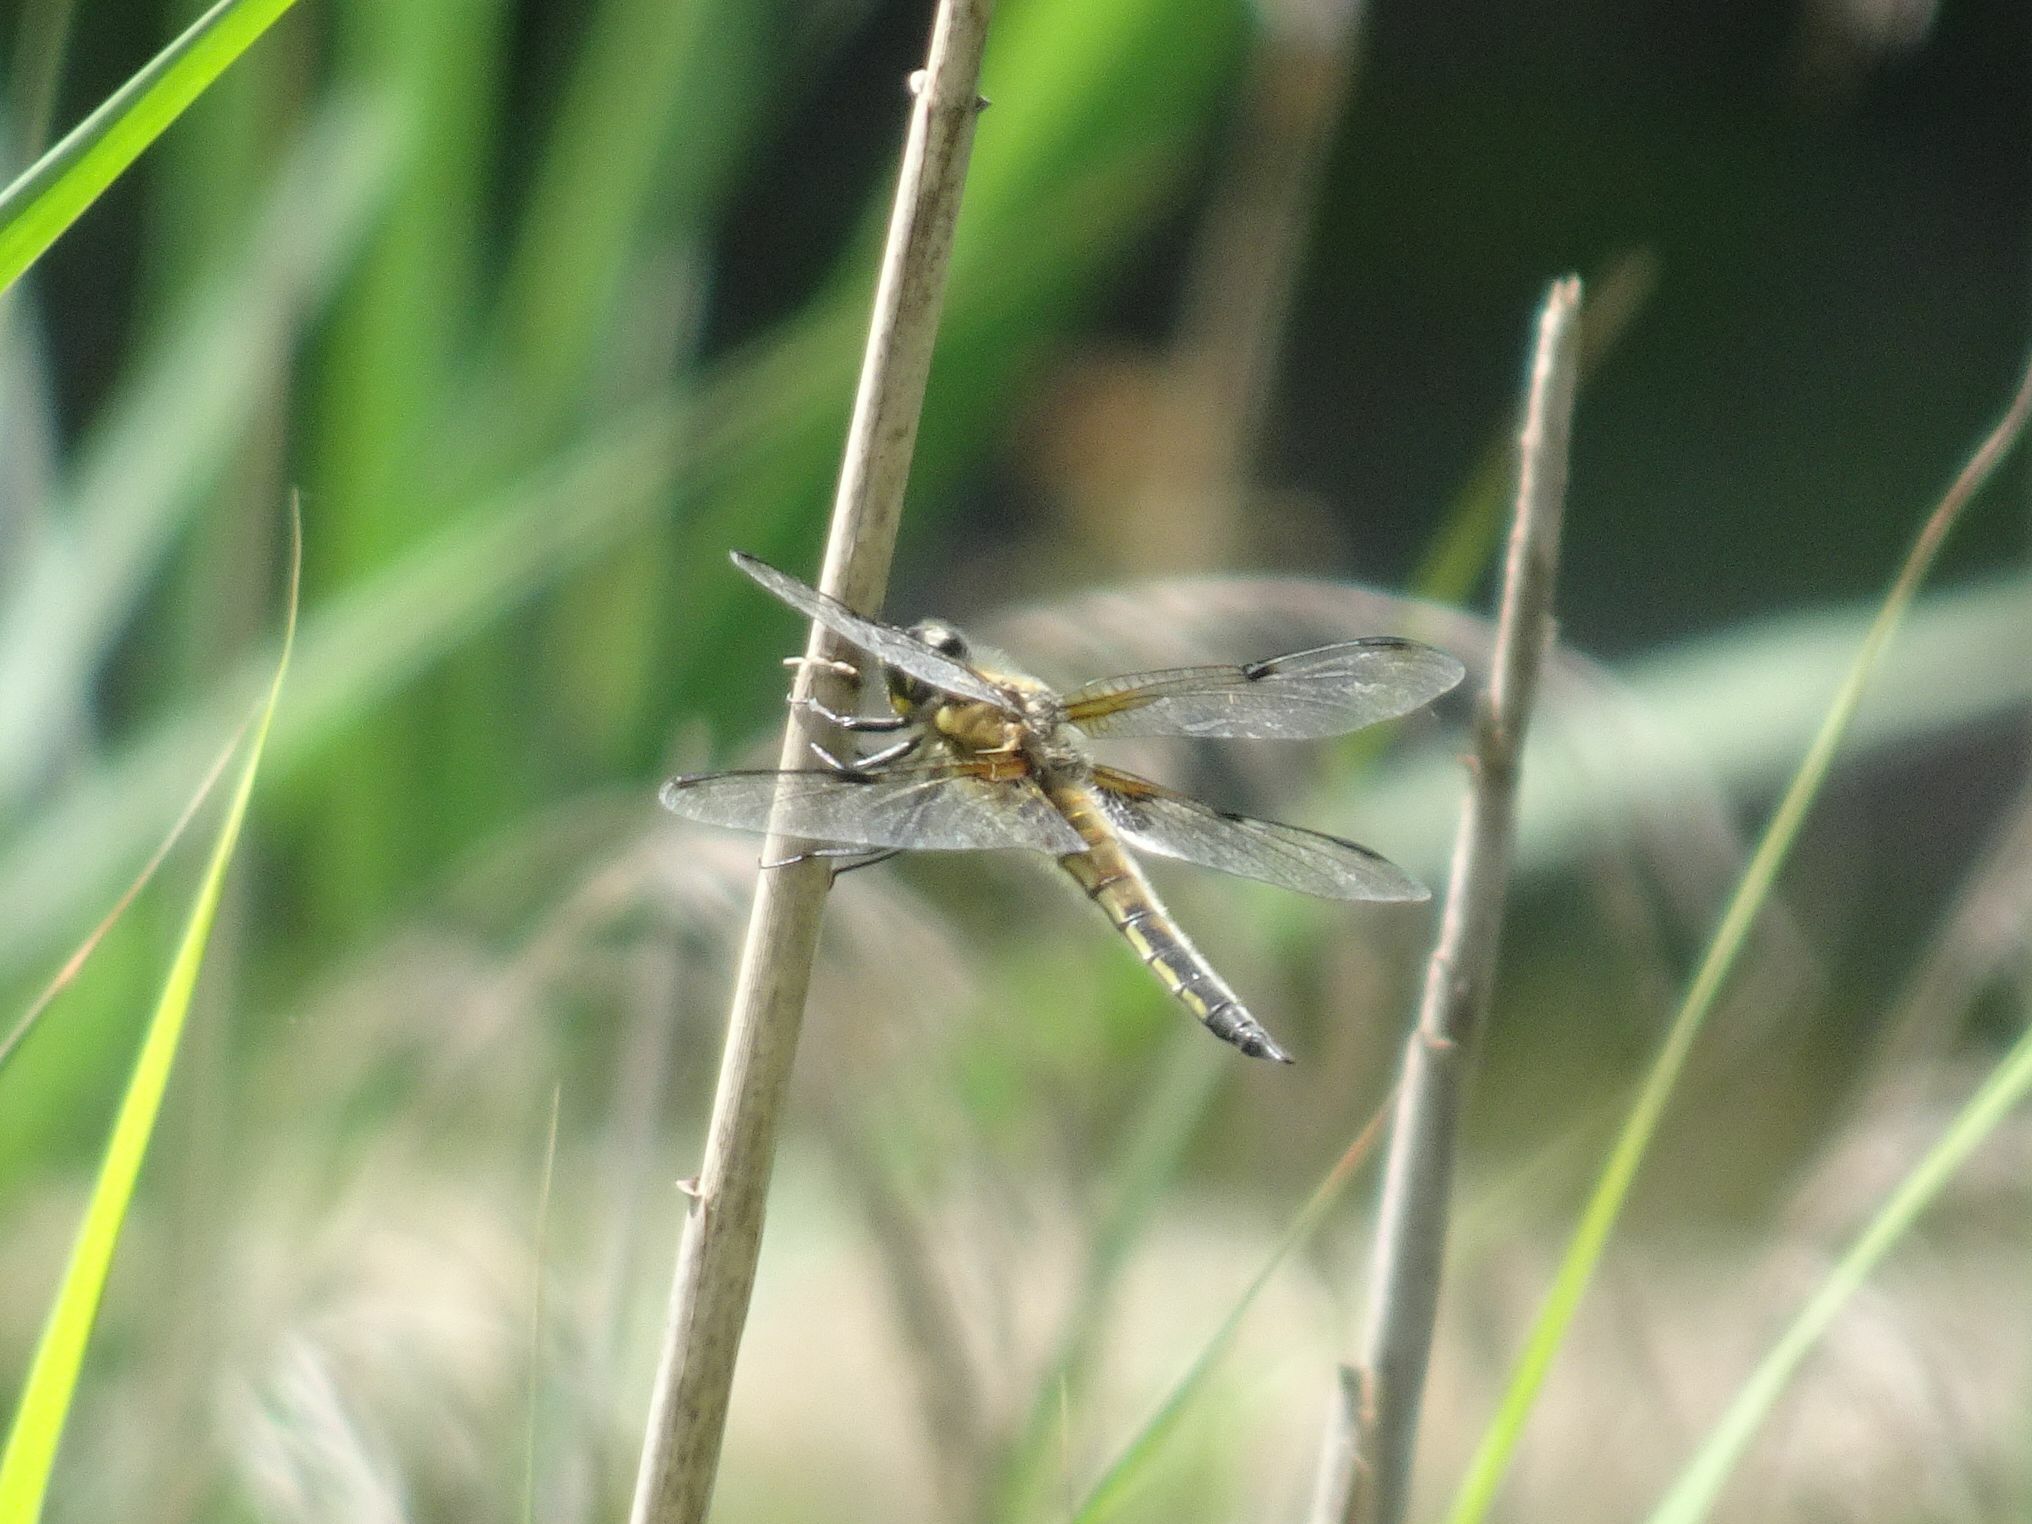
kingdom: Animalia
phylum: Arthropoda
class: Insecta
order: Odonata
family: Libellulidae
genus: Libellula
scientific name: Libellula quadrimaculata
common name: Four-spotted chaser
